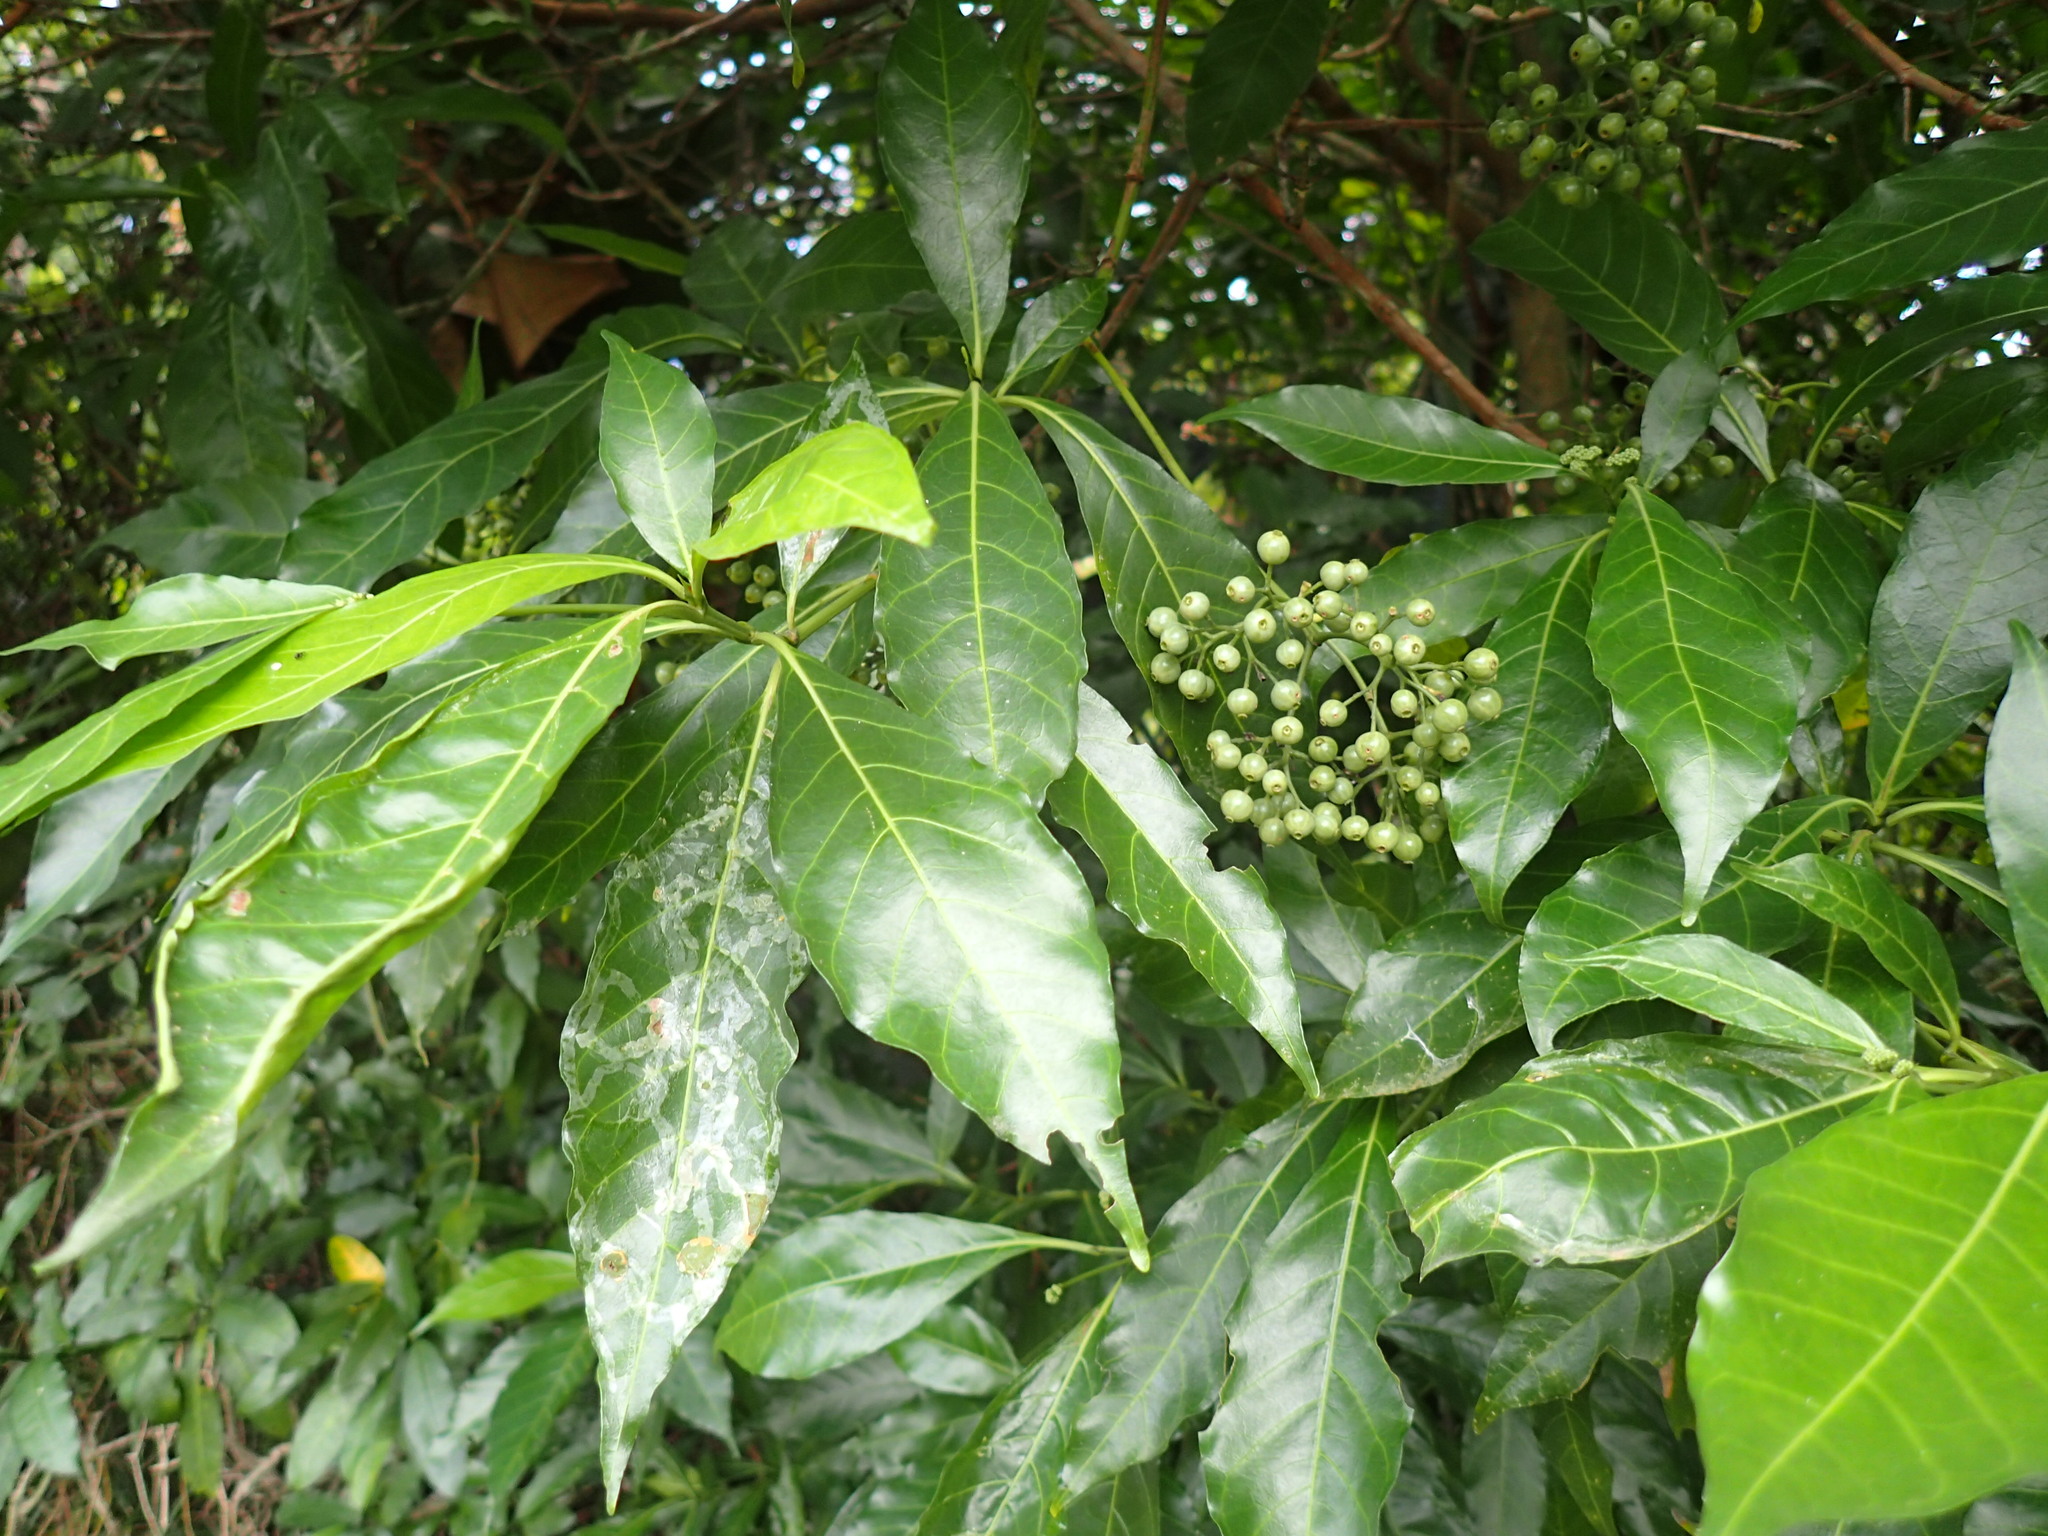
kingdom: Plantae
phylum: Tracheophyta
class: Magnoliopsida
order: Gentianales
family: Rubiaceae
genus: Tarenna
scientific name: Tarenna pavettoides
